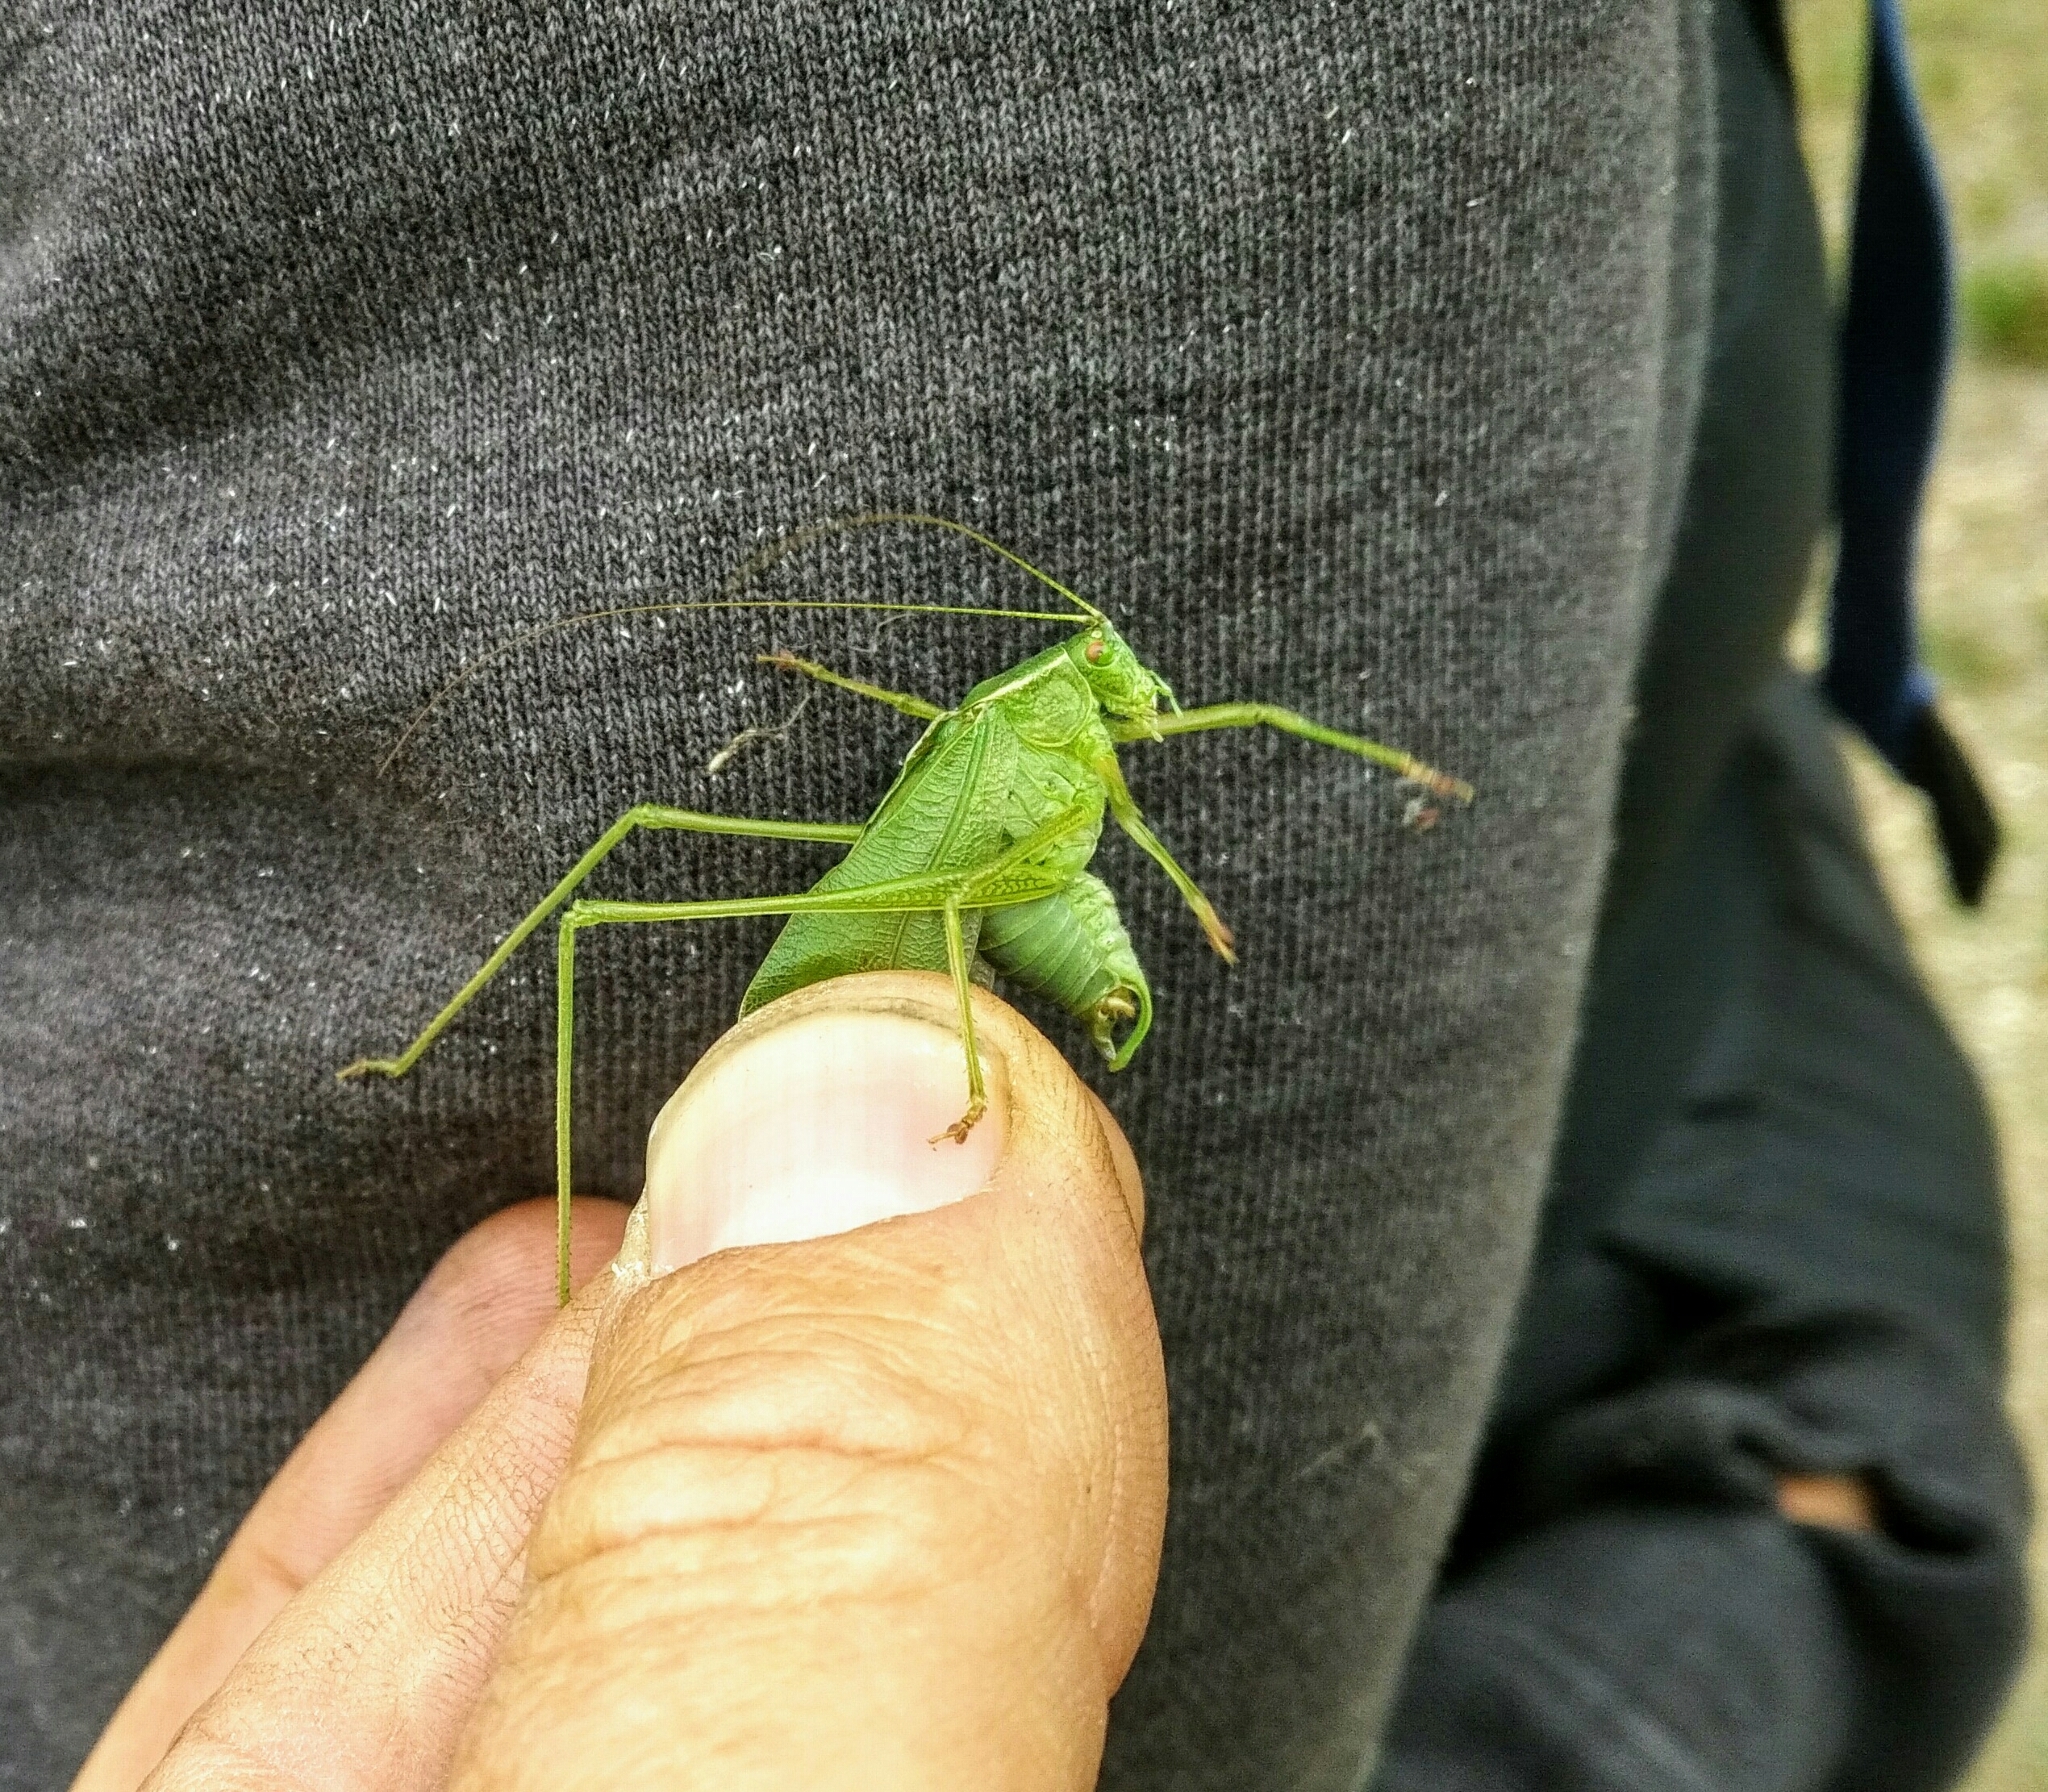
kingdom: Animalia
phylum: Arthropoda
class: Insecta
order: Orthoptera
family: Tettigoniidae
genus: Scudderia
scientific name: Scudderia pistillata
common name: Broad-winged bush-katydid
